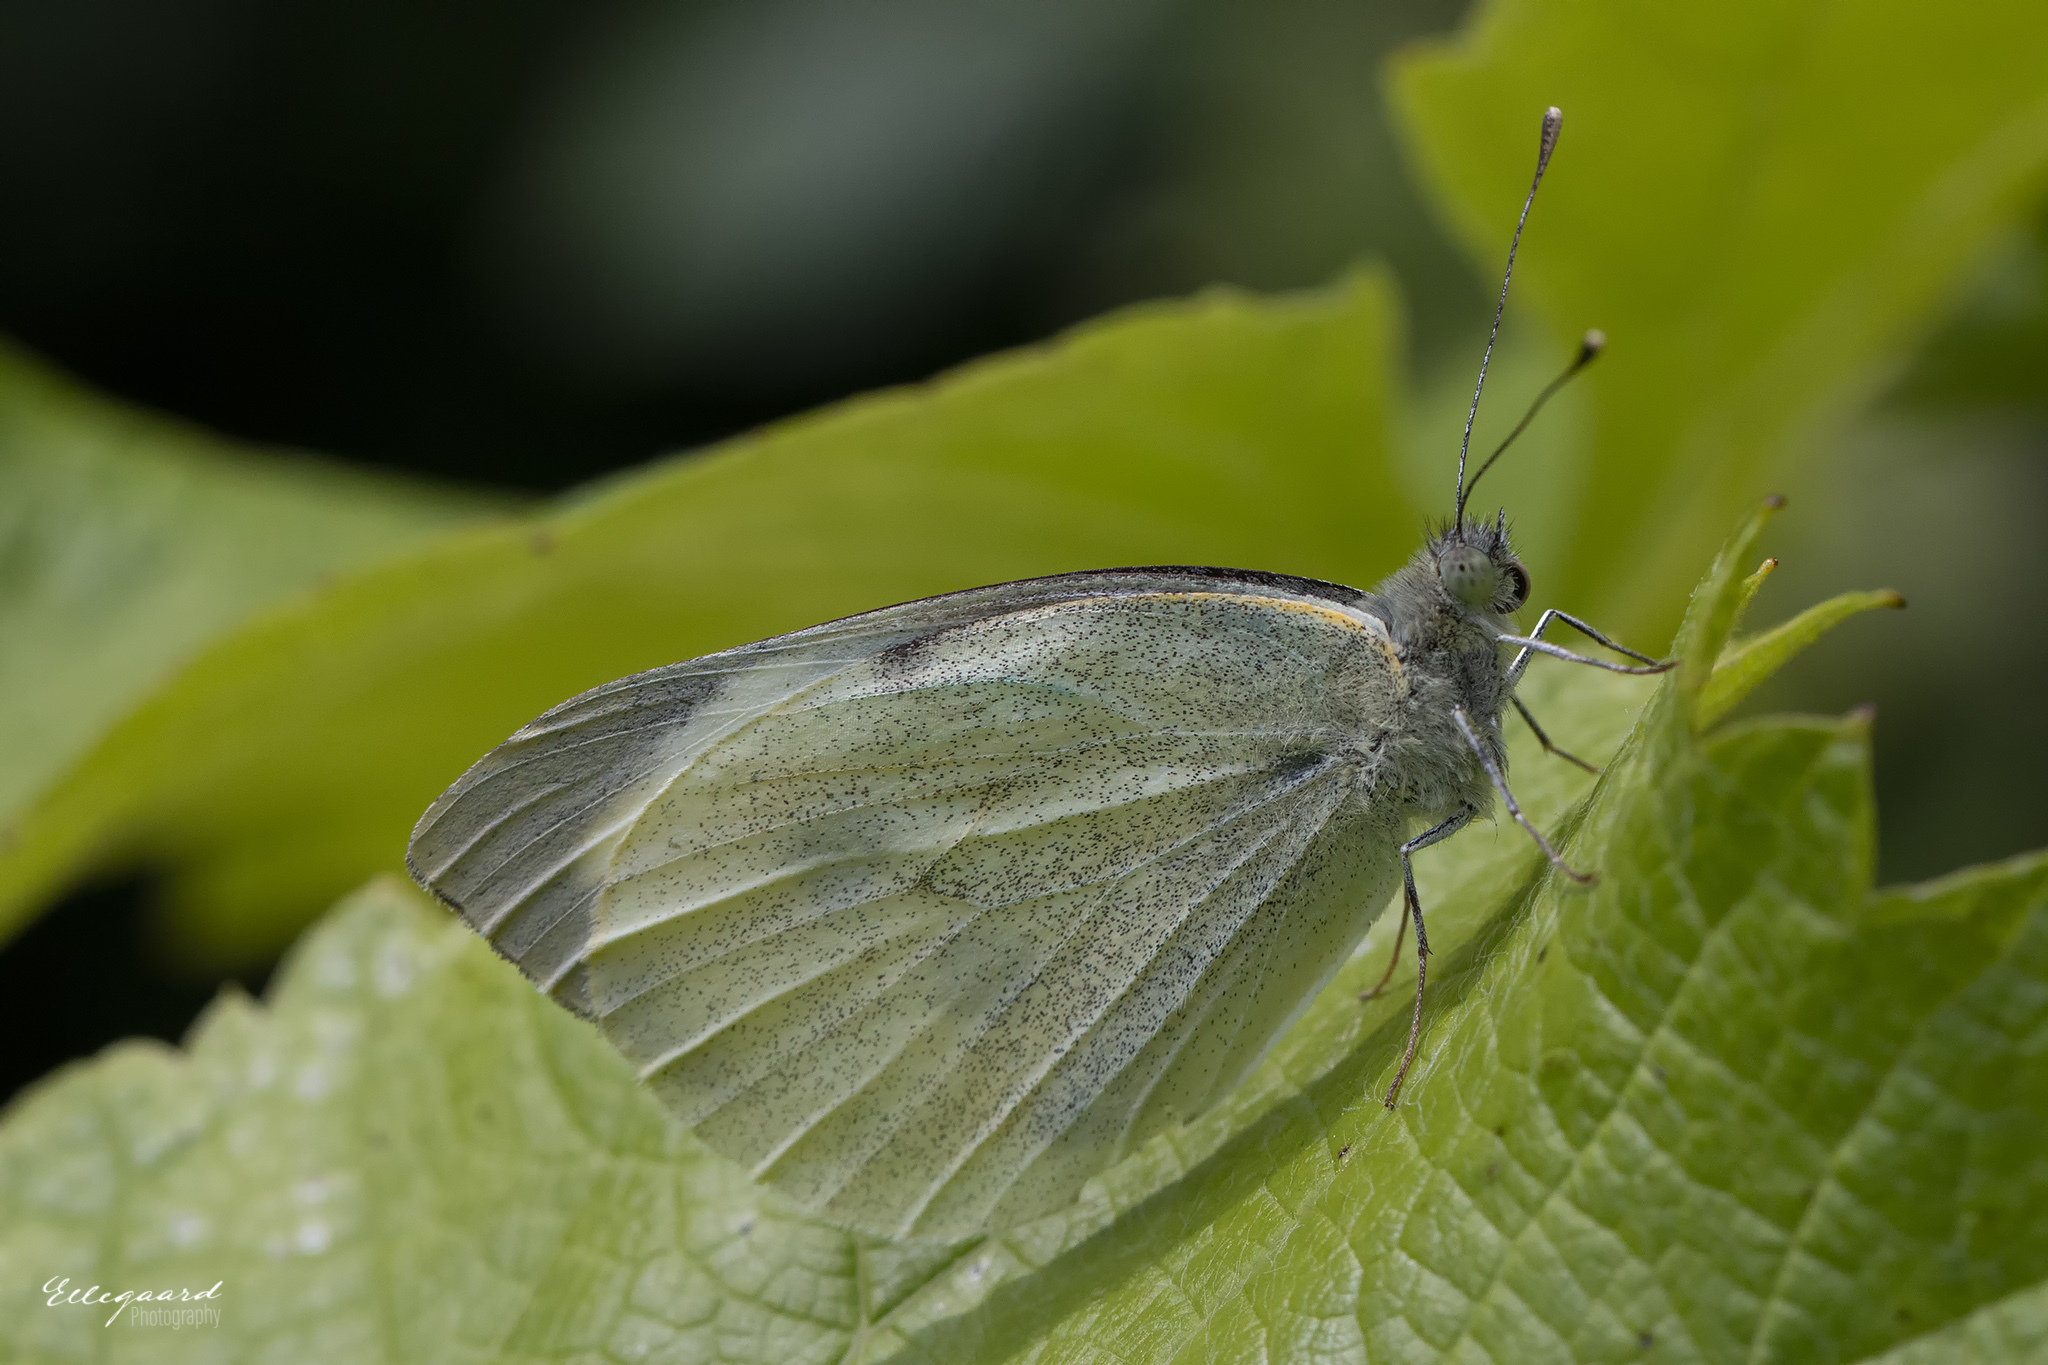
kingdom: Animalia
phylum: Arthropoda
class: Insecta
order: Lepidoptera
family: Pieridae
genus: Pieris
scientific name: Pieris brassicae
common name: Large white
